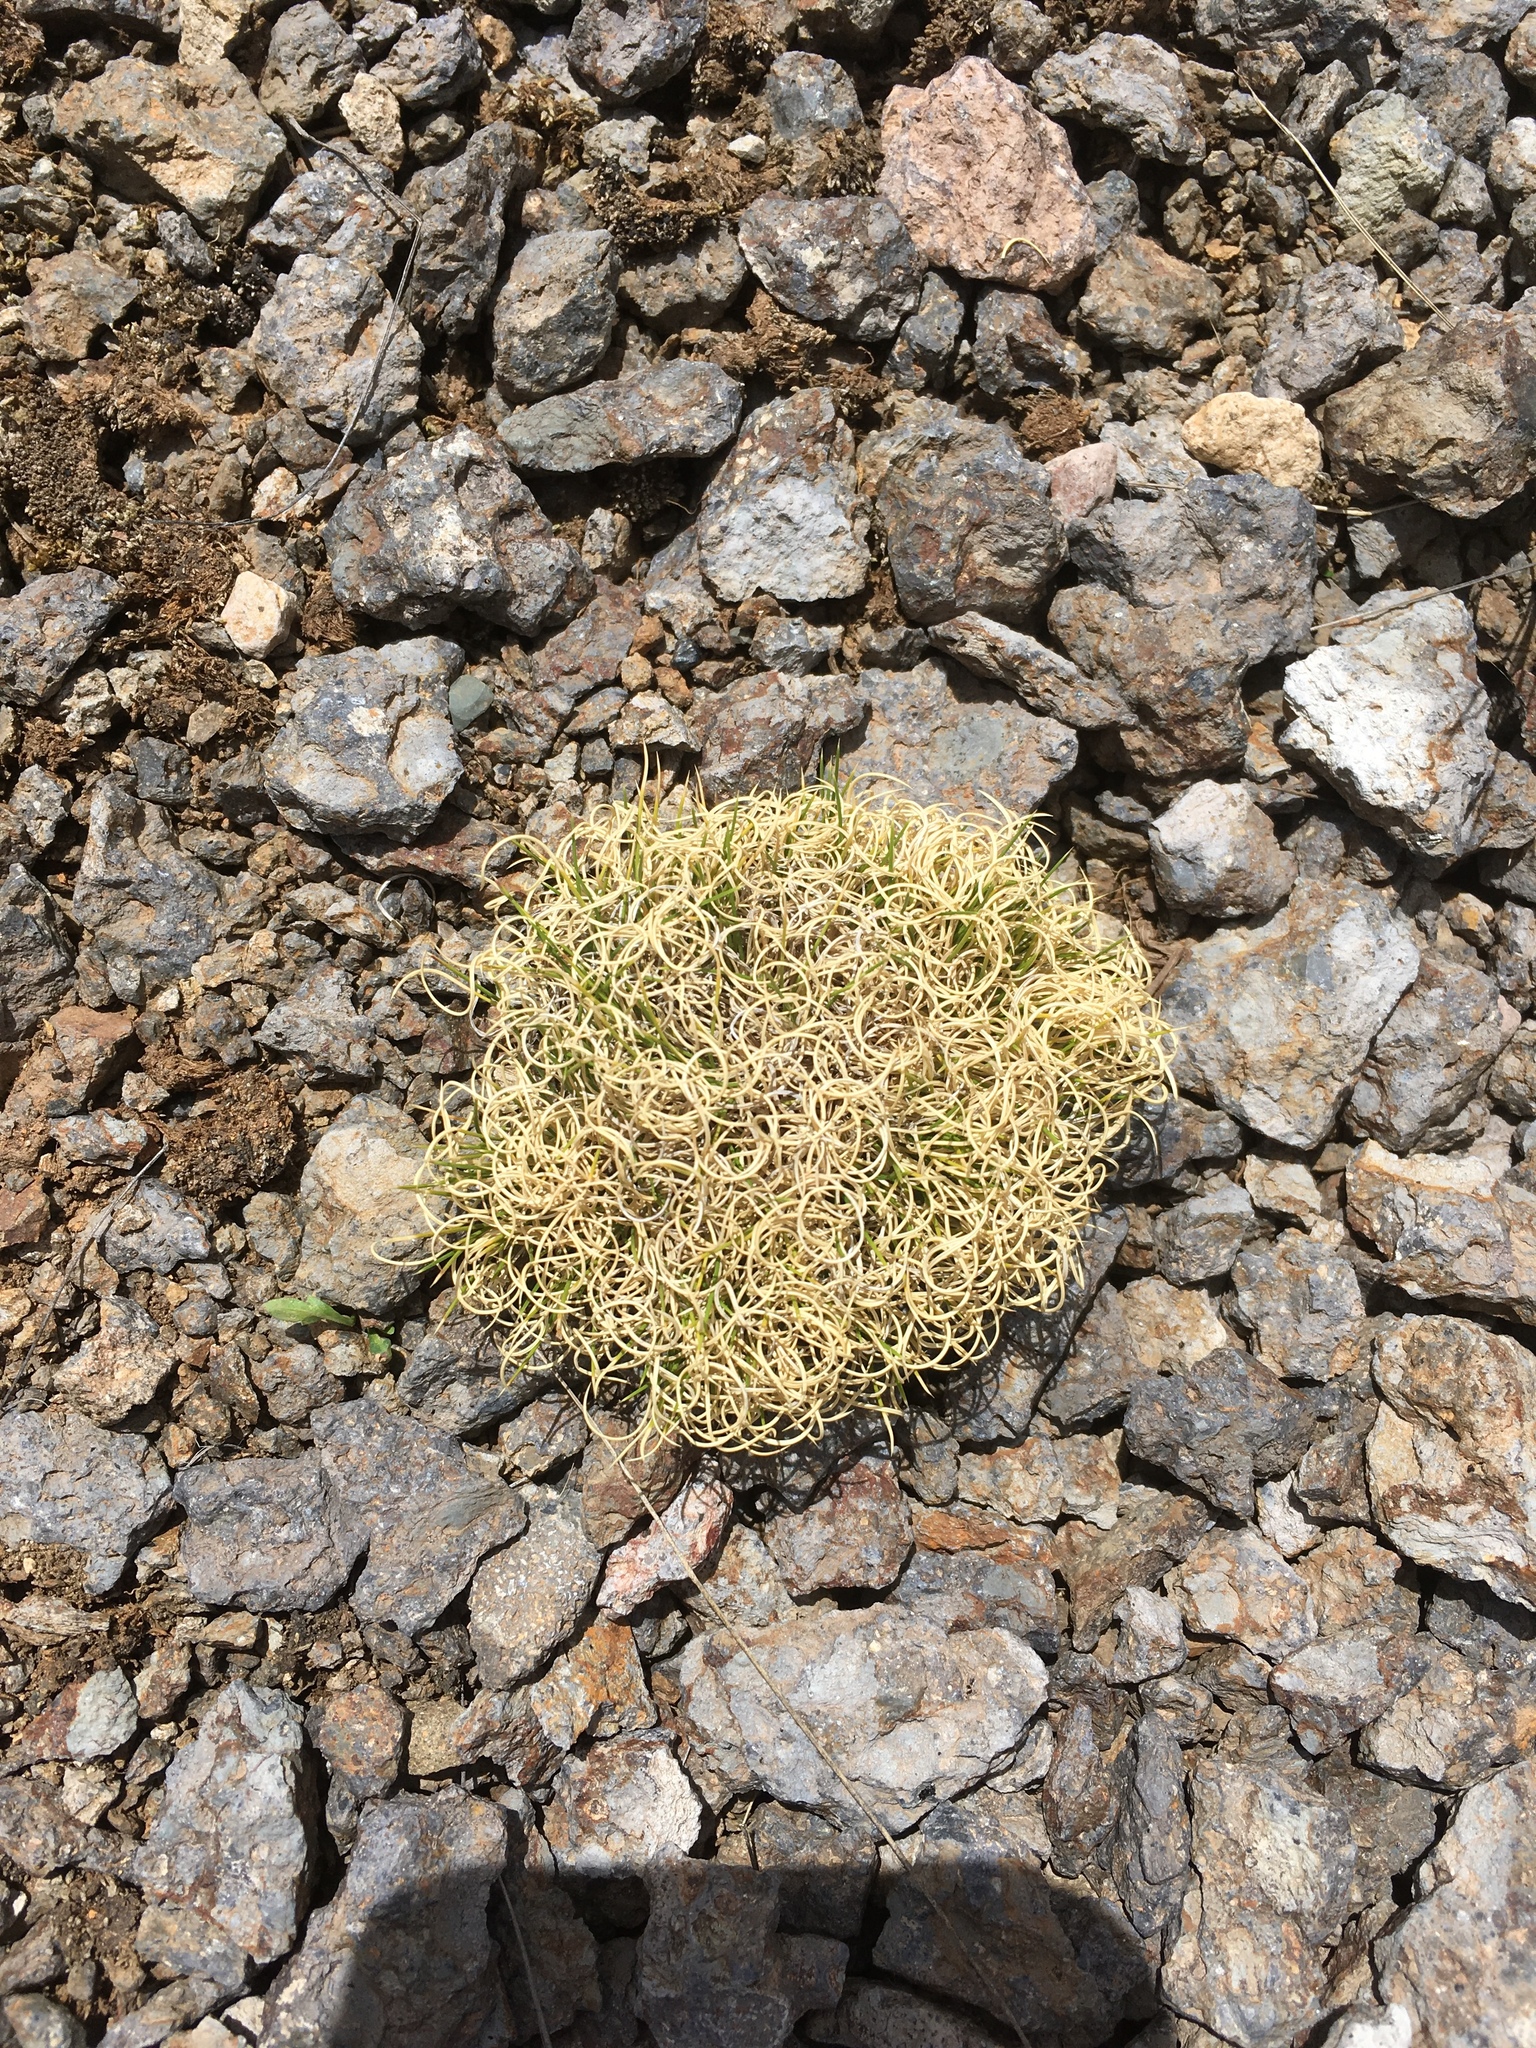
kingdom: Plantae
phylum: Tracheophyta
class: Liliopsida
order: Poales
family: Poaceae
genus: Cinnagrostis
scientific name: Cinnagrostis vicunarum
